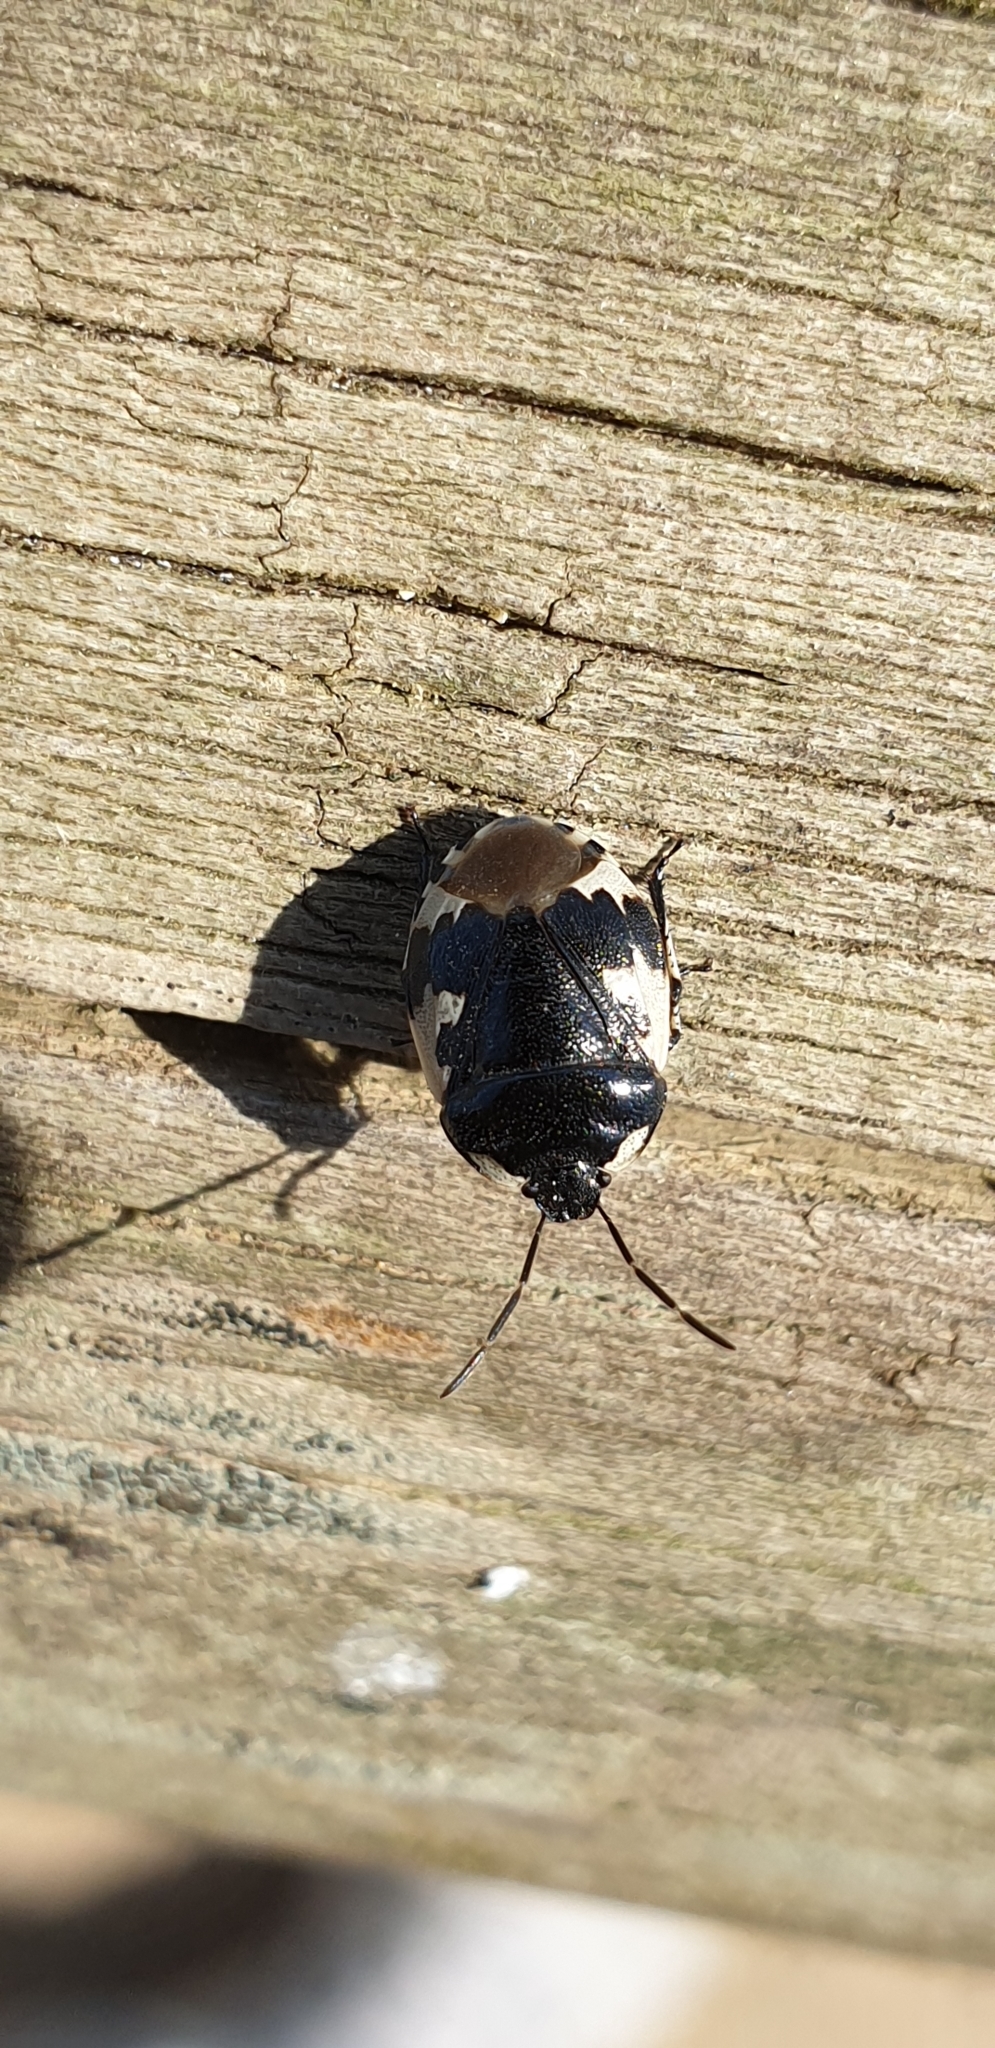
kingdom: Animalia
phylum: Arthropoda
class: Insecta
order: Hemiptera
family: Cydnidae
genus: Tritomegas
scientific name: Tritomegas bicolor
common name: Pied shieldbug
